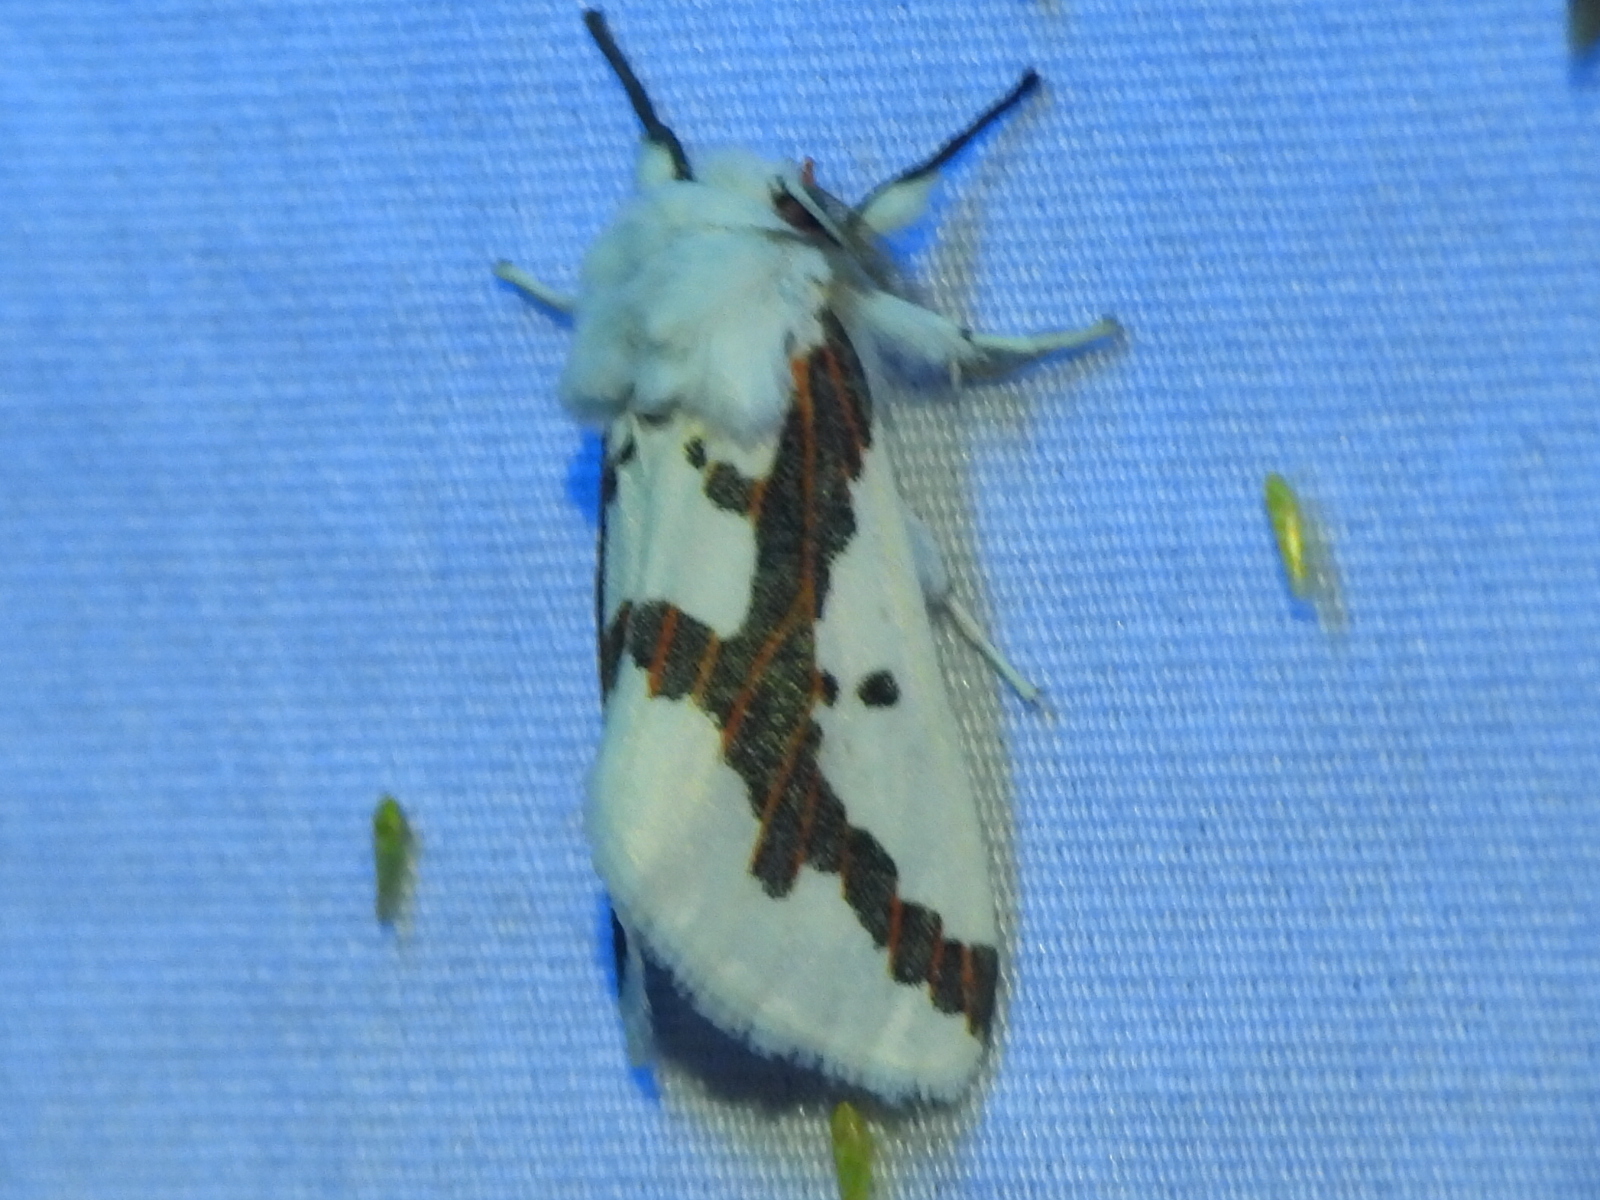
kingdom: Animalia
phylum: Arthropoda
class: Insecta
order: Lepidoptera
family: Erebidae
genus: Euerythra
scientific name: Euerythra phasma
